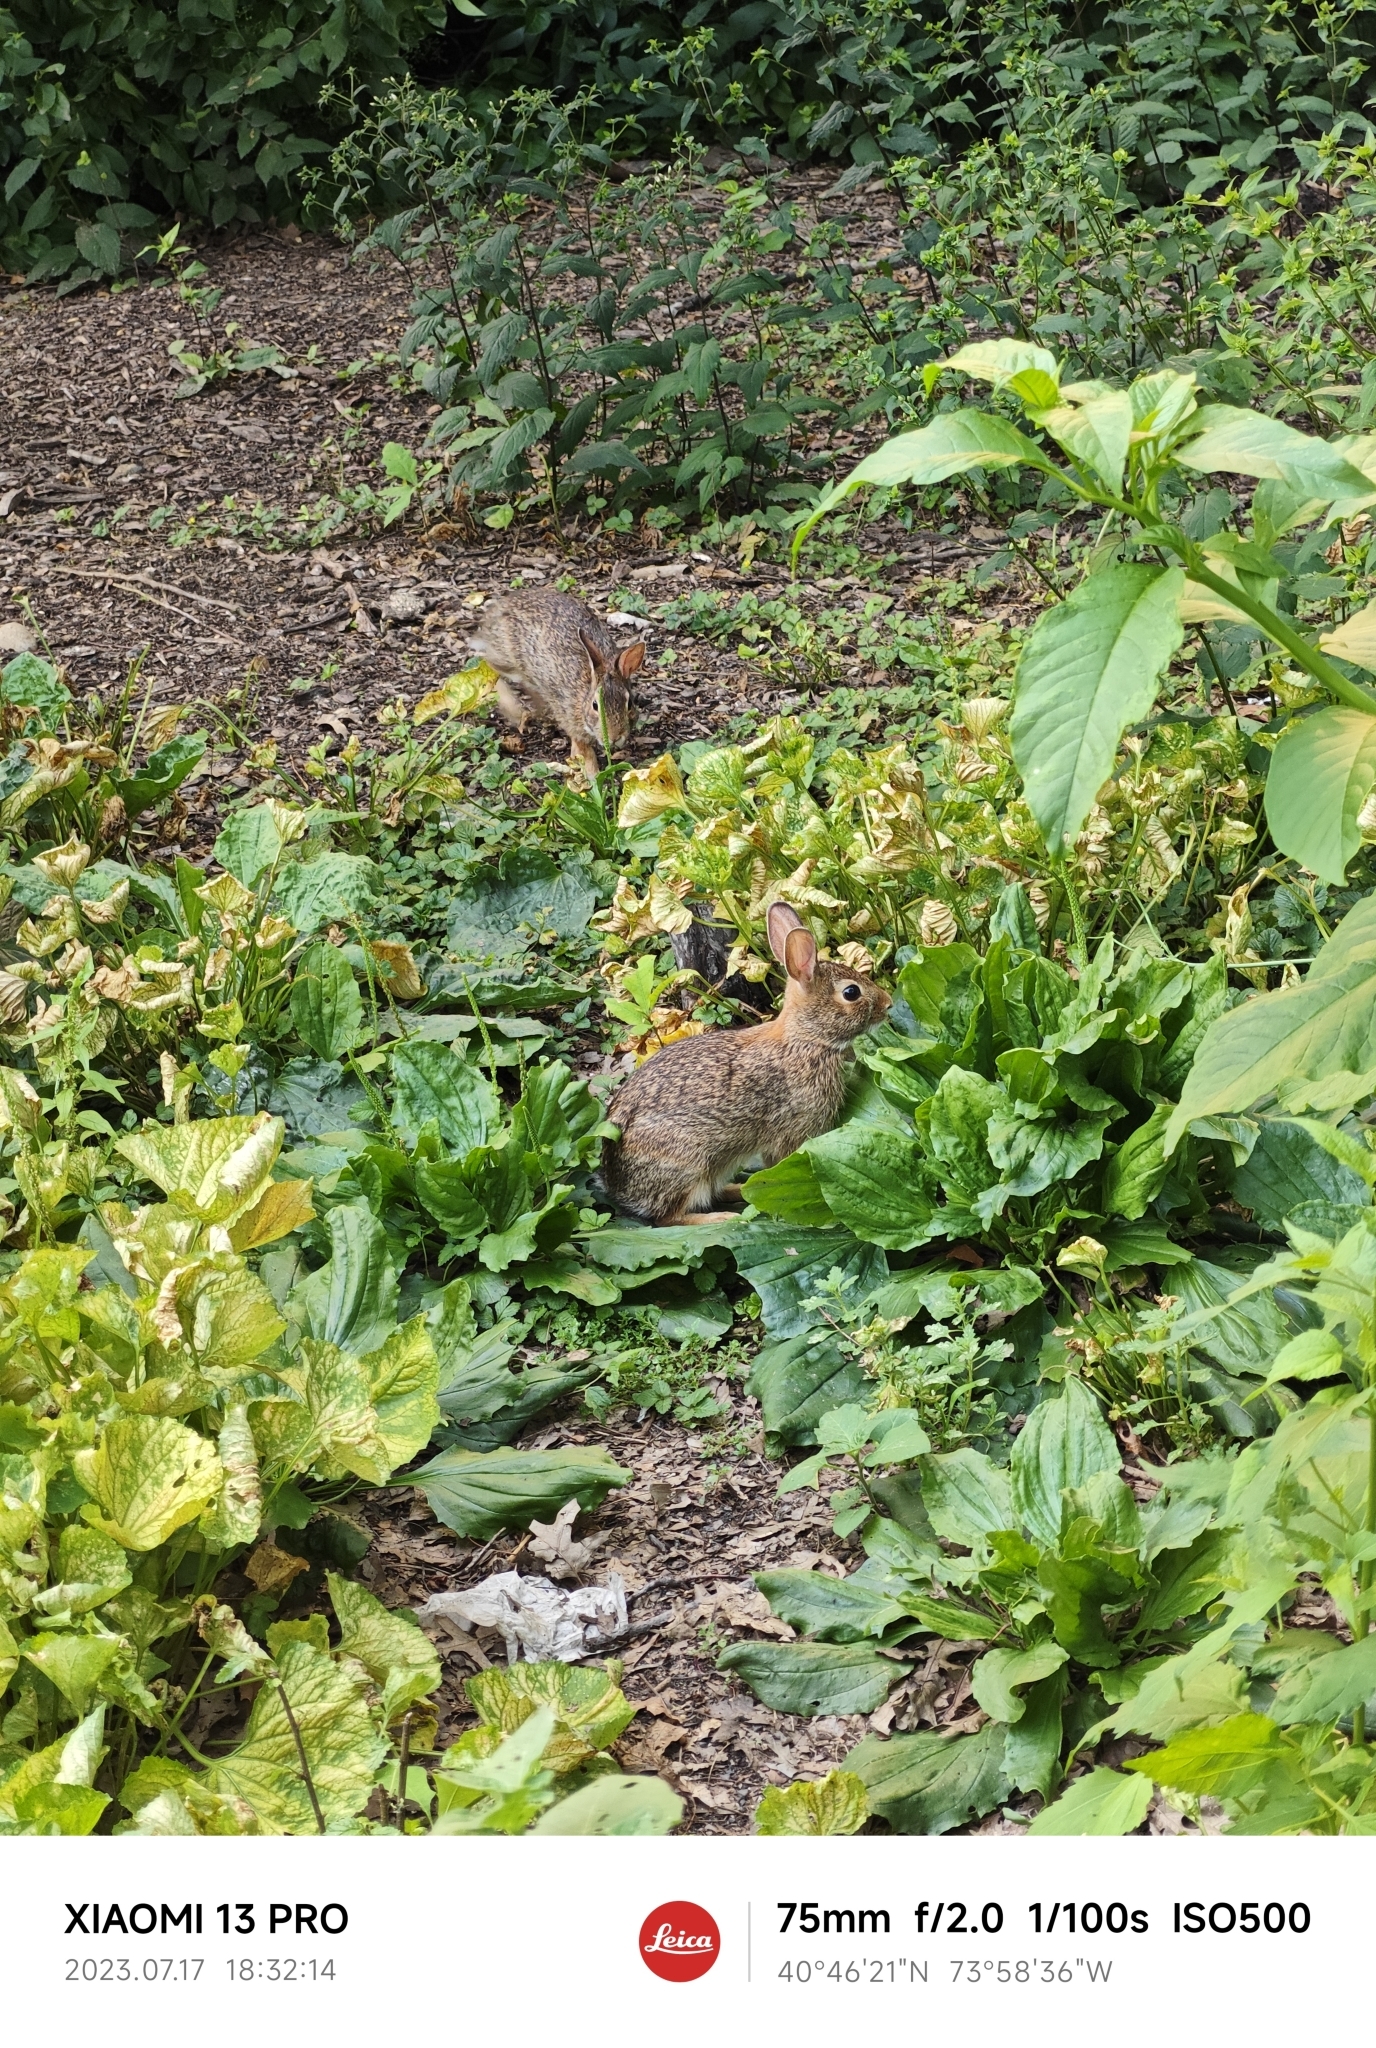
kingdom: Animalia
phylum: Chordata
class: Mammalia
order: Lagomorpha
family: Leporidae
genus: Sylvilagus
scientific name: Sylvilagus floridanus
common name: Eastern cottontail
